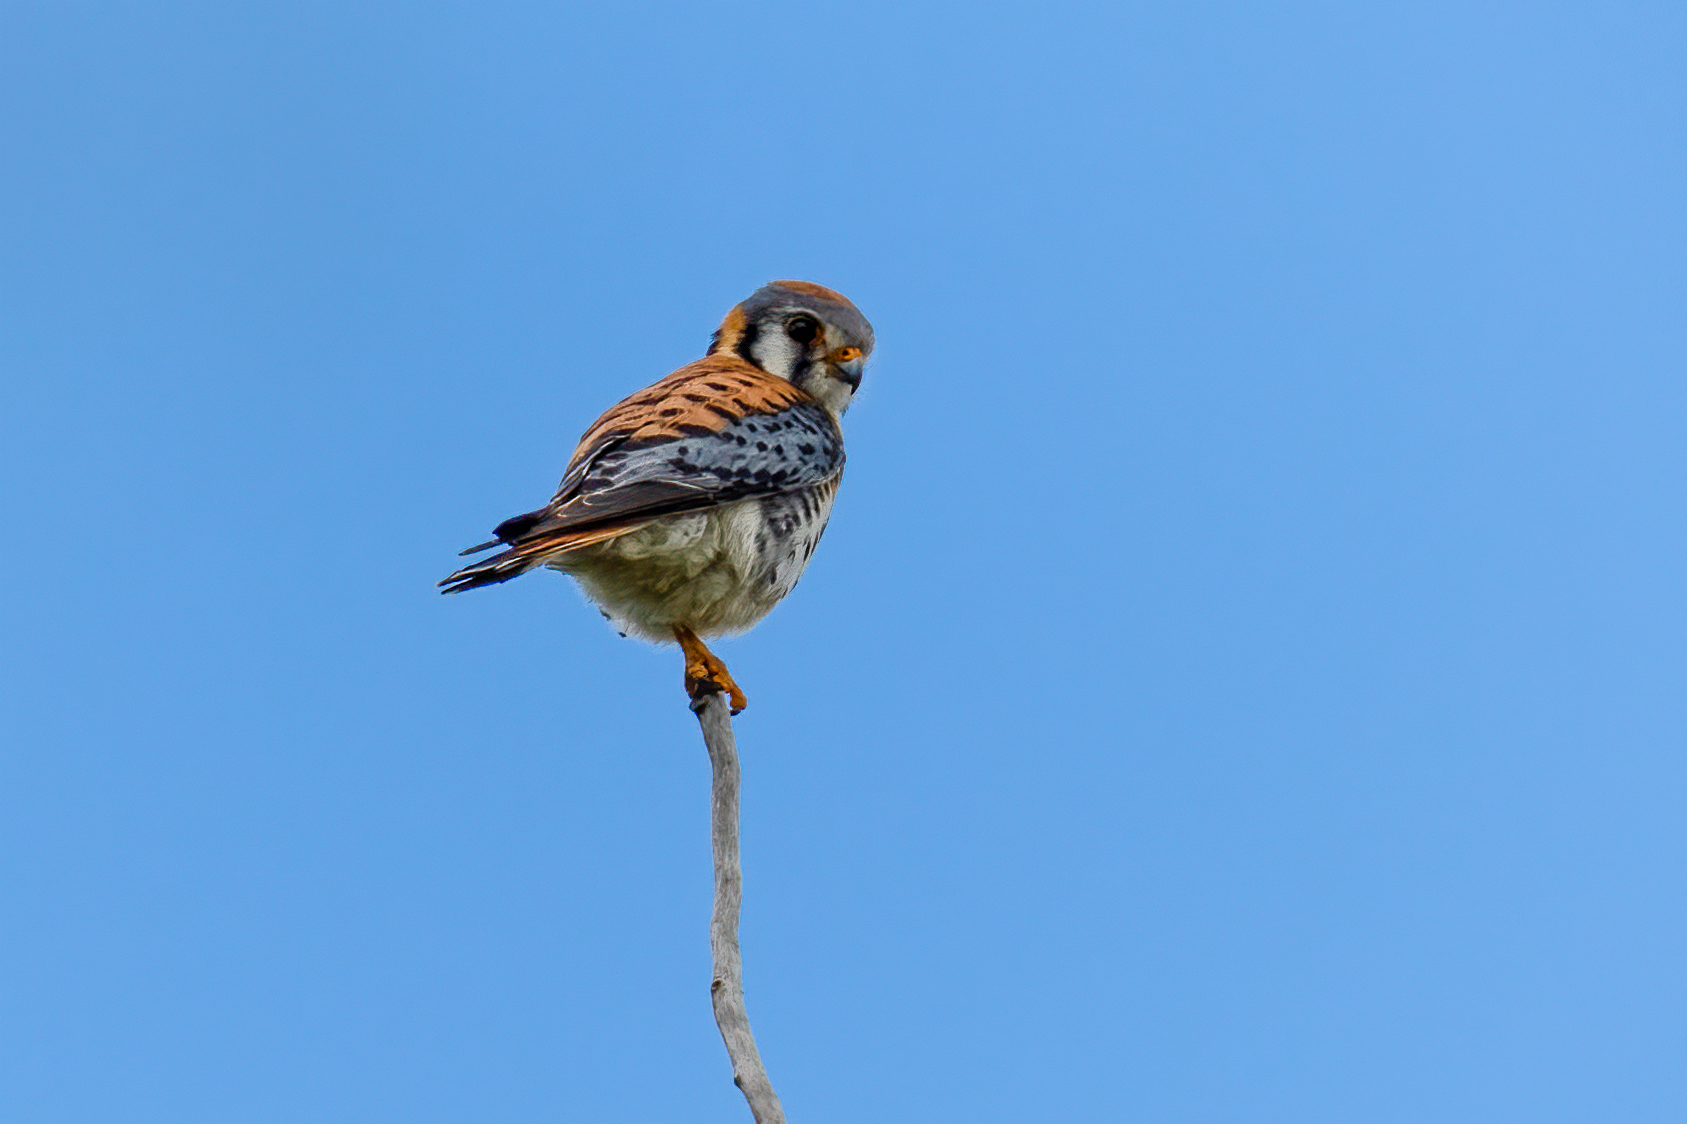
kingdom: Animalia
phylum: Chordata
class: Aves
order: Falconiformes
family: Falconidae
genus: Falco
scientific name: Falco sparverius
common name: American kestrel
